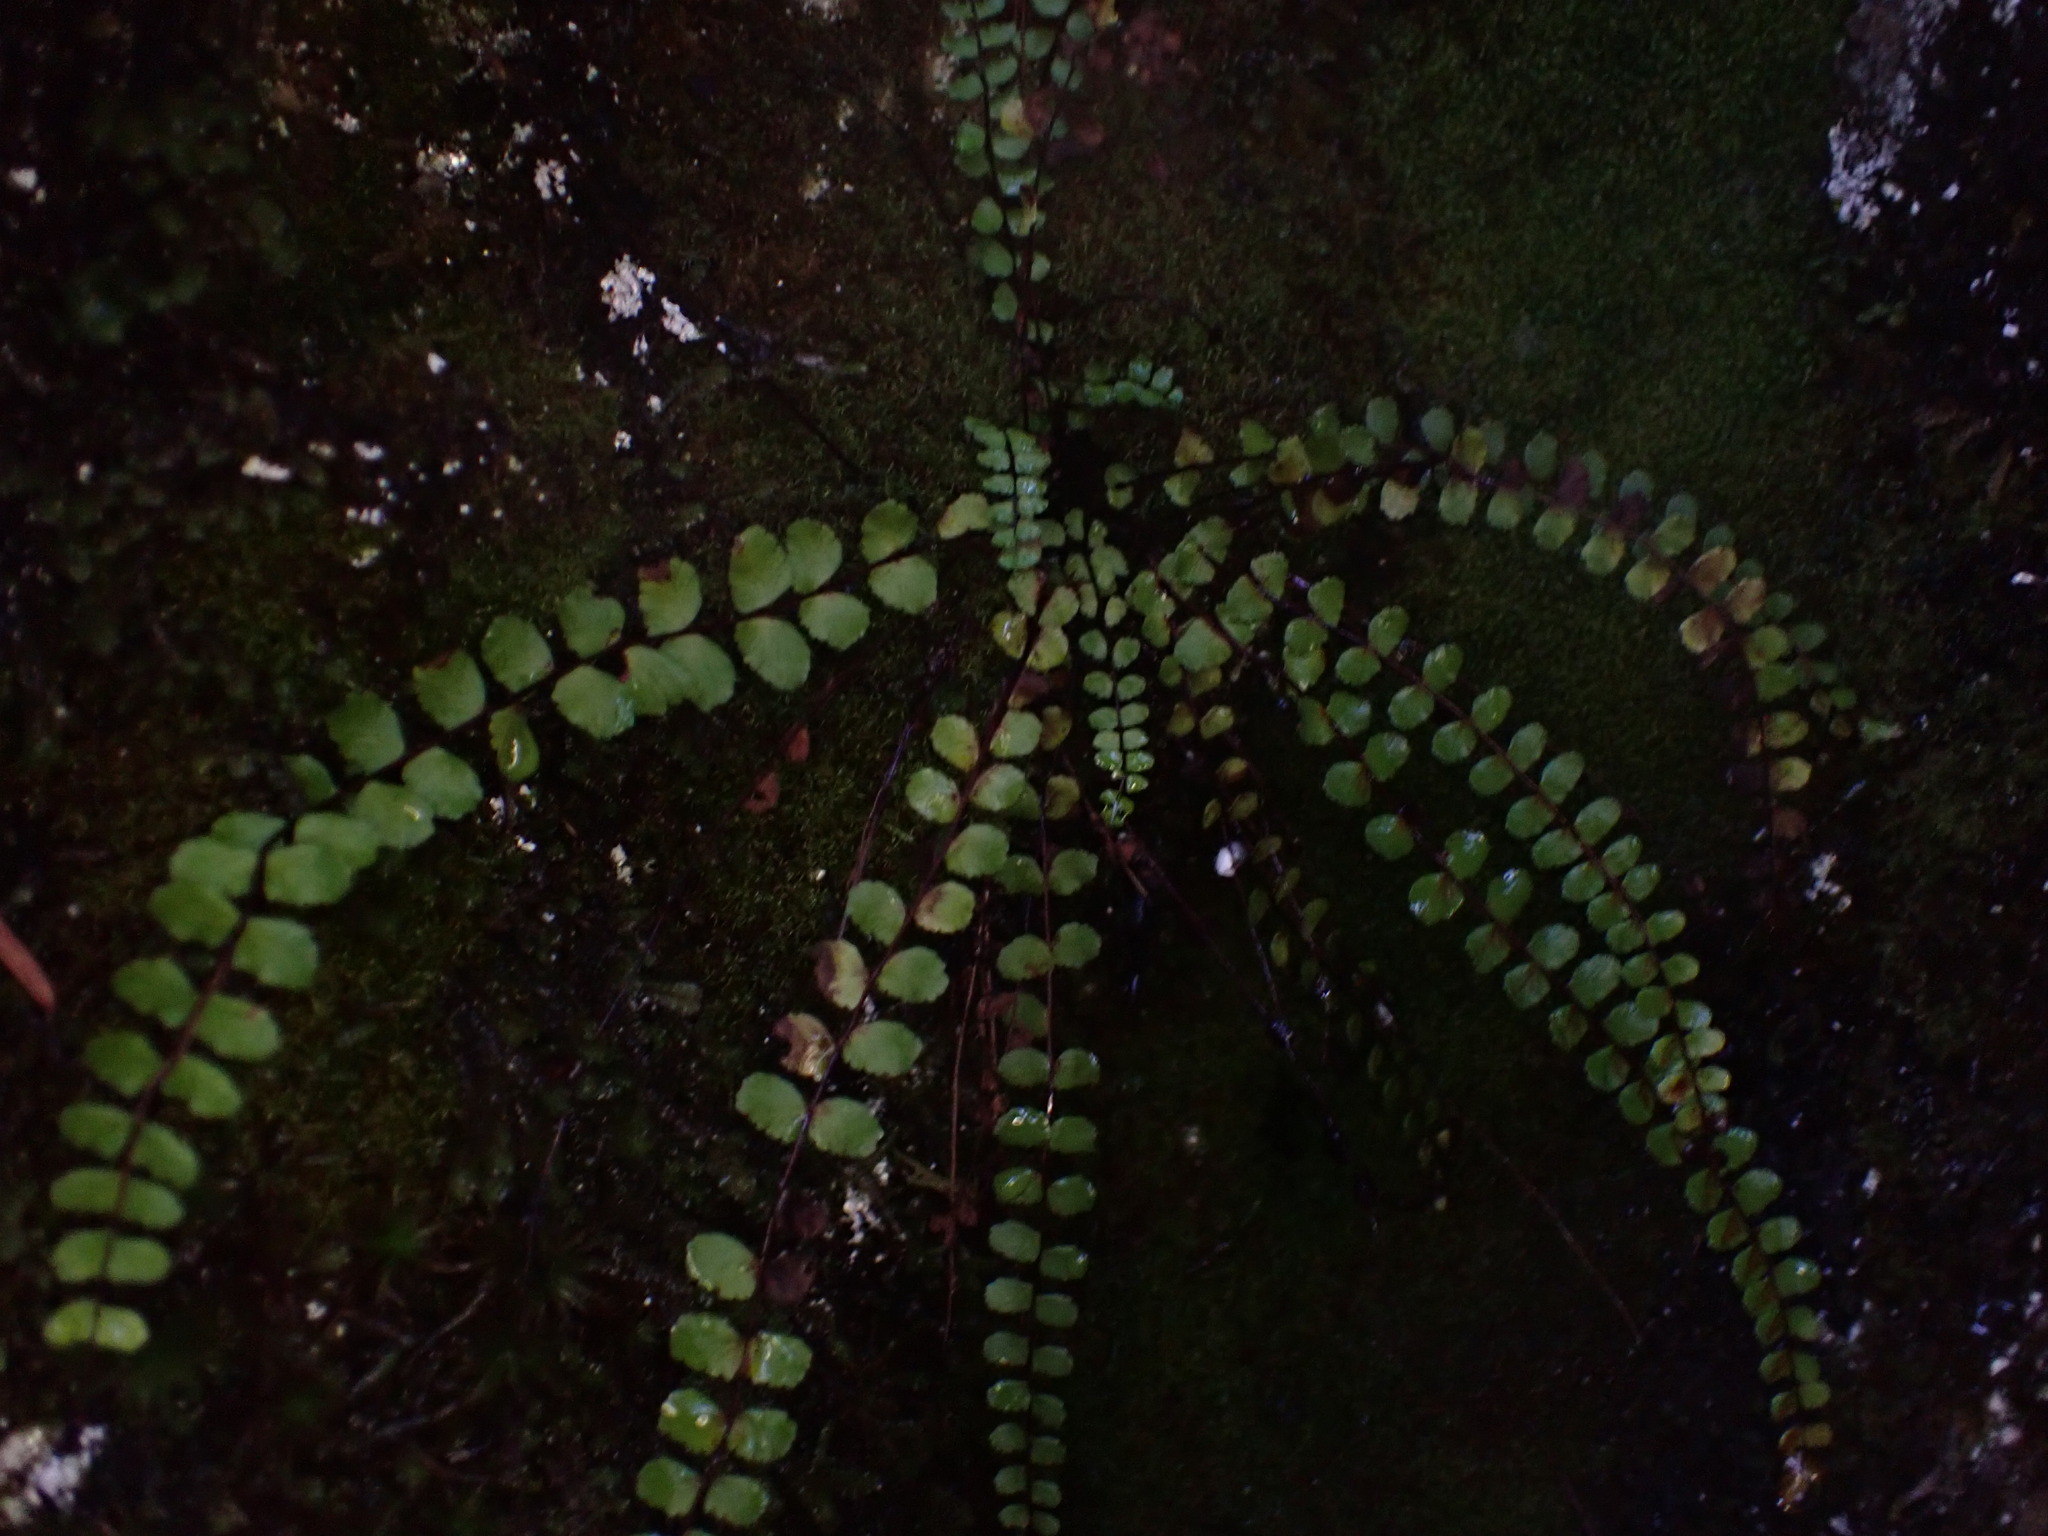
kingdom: Plantae
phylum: Tracheophyta
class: Polypodiopsida
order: Polypodiales
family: Aspleniaceae
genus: Asplenium
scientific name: Asplenium trichomanes
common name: Maidenhair spleenwort
